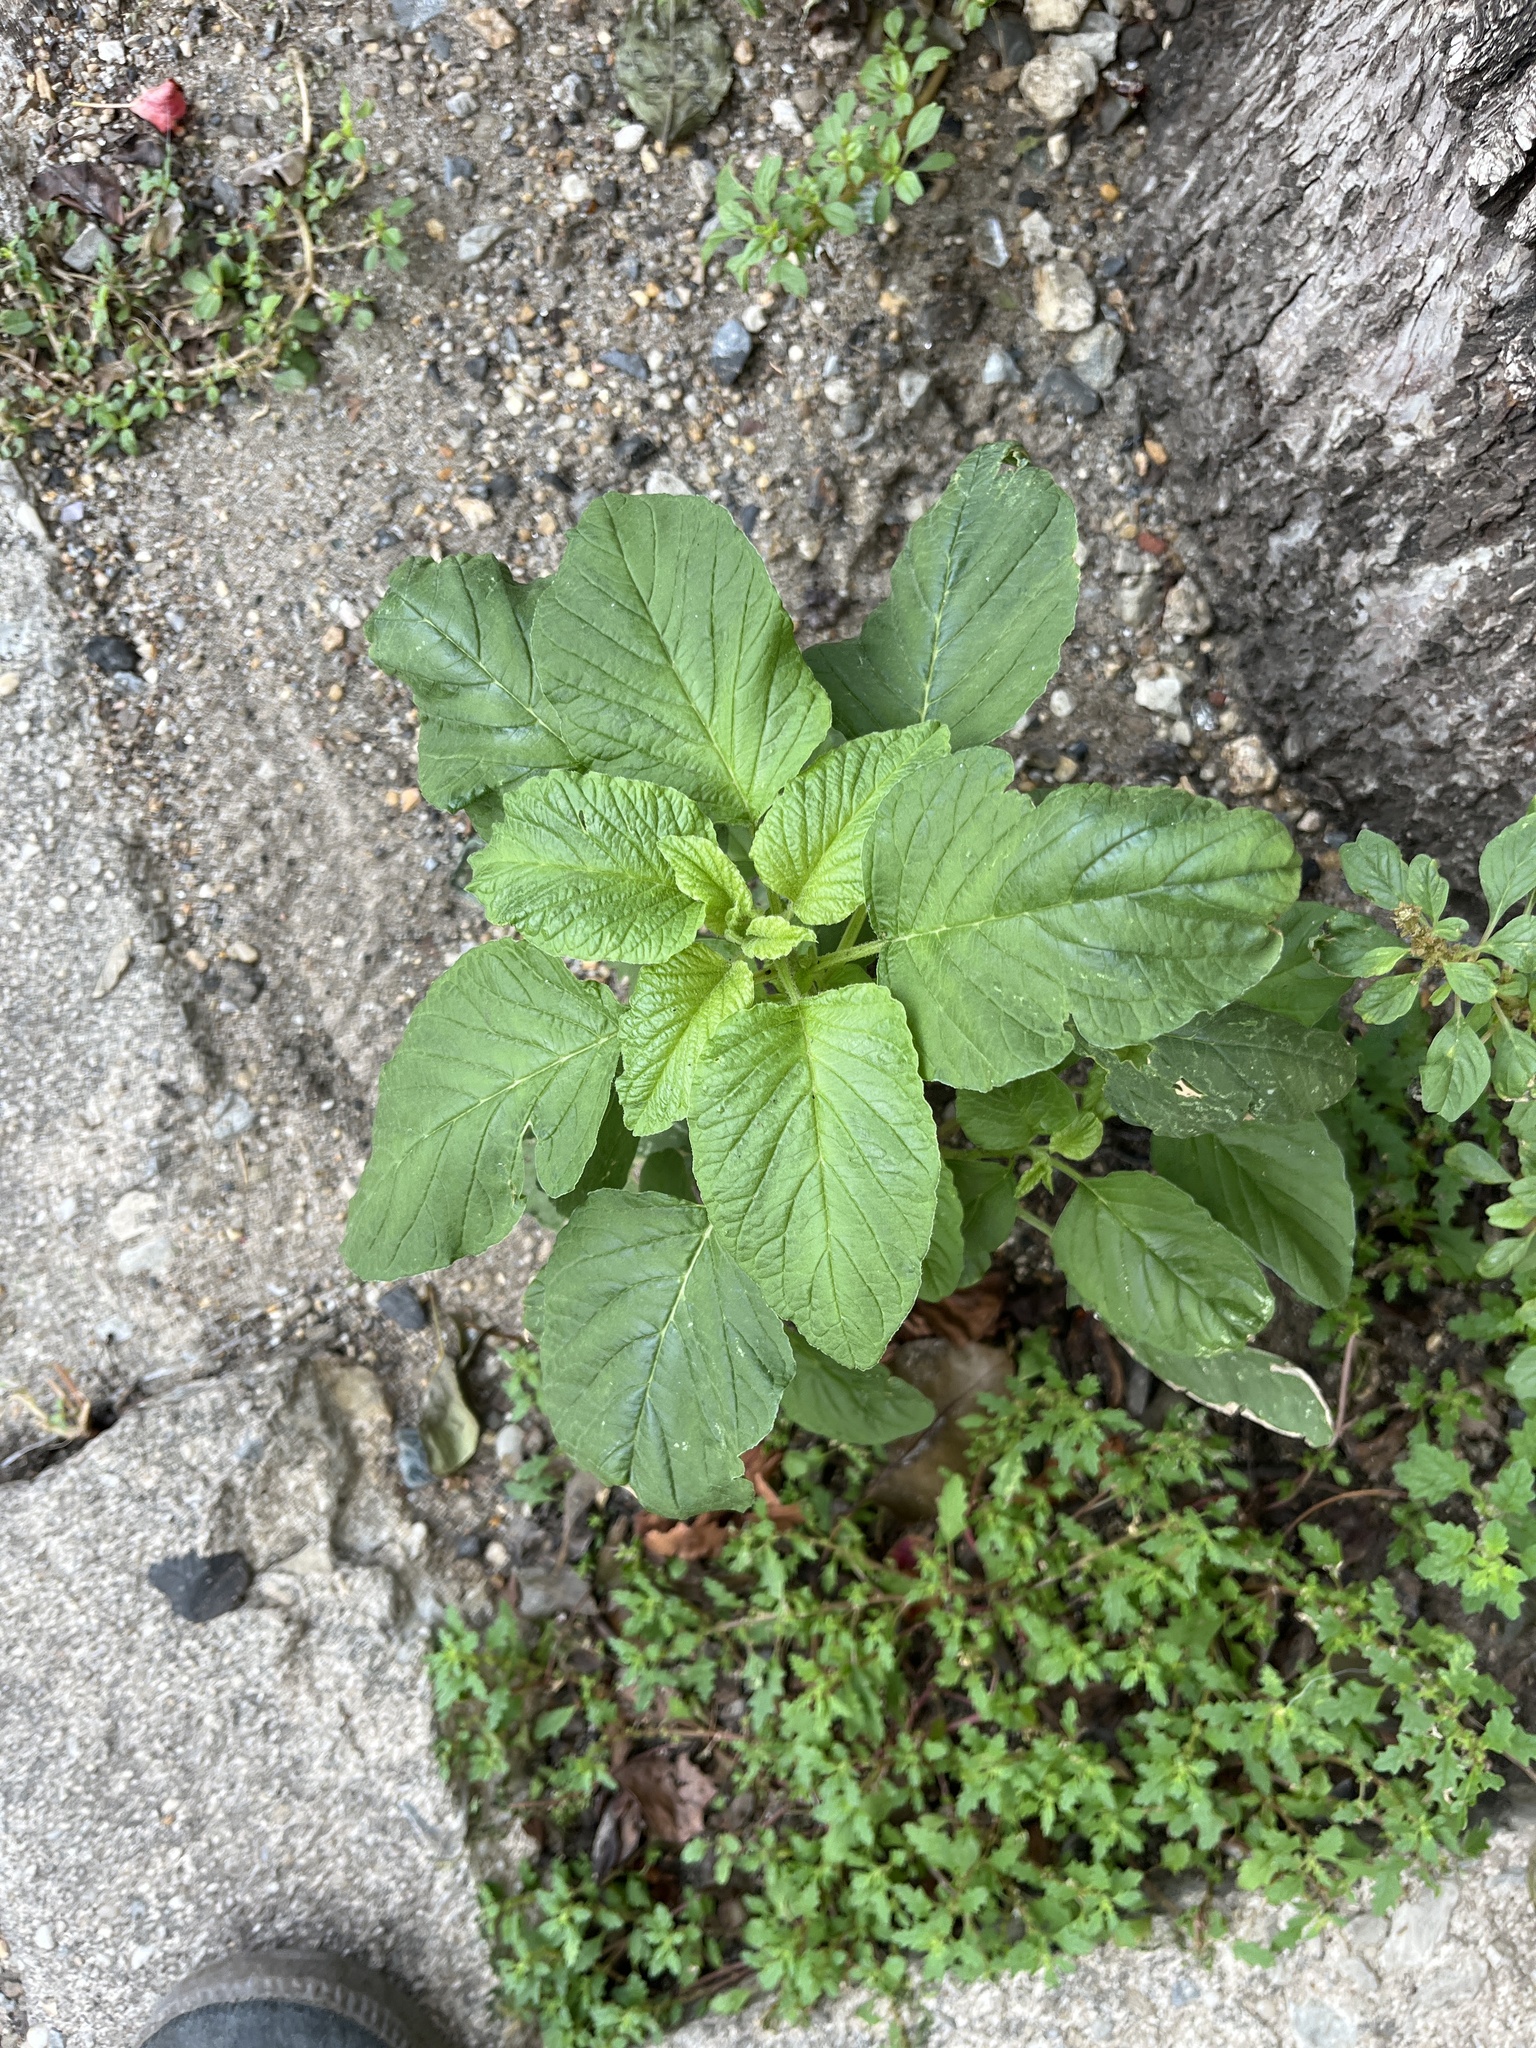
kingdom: Plantae
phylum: Tracheophyta
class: Magnoliopsida
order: Caryophyllales
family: Amaranthaceae
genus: Amaranthus
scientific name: Amaranthus blitum
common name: Purple amaranth
